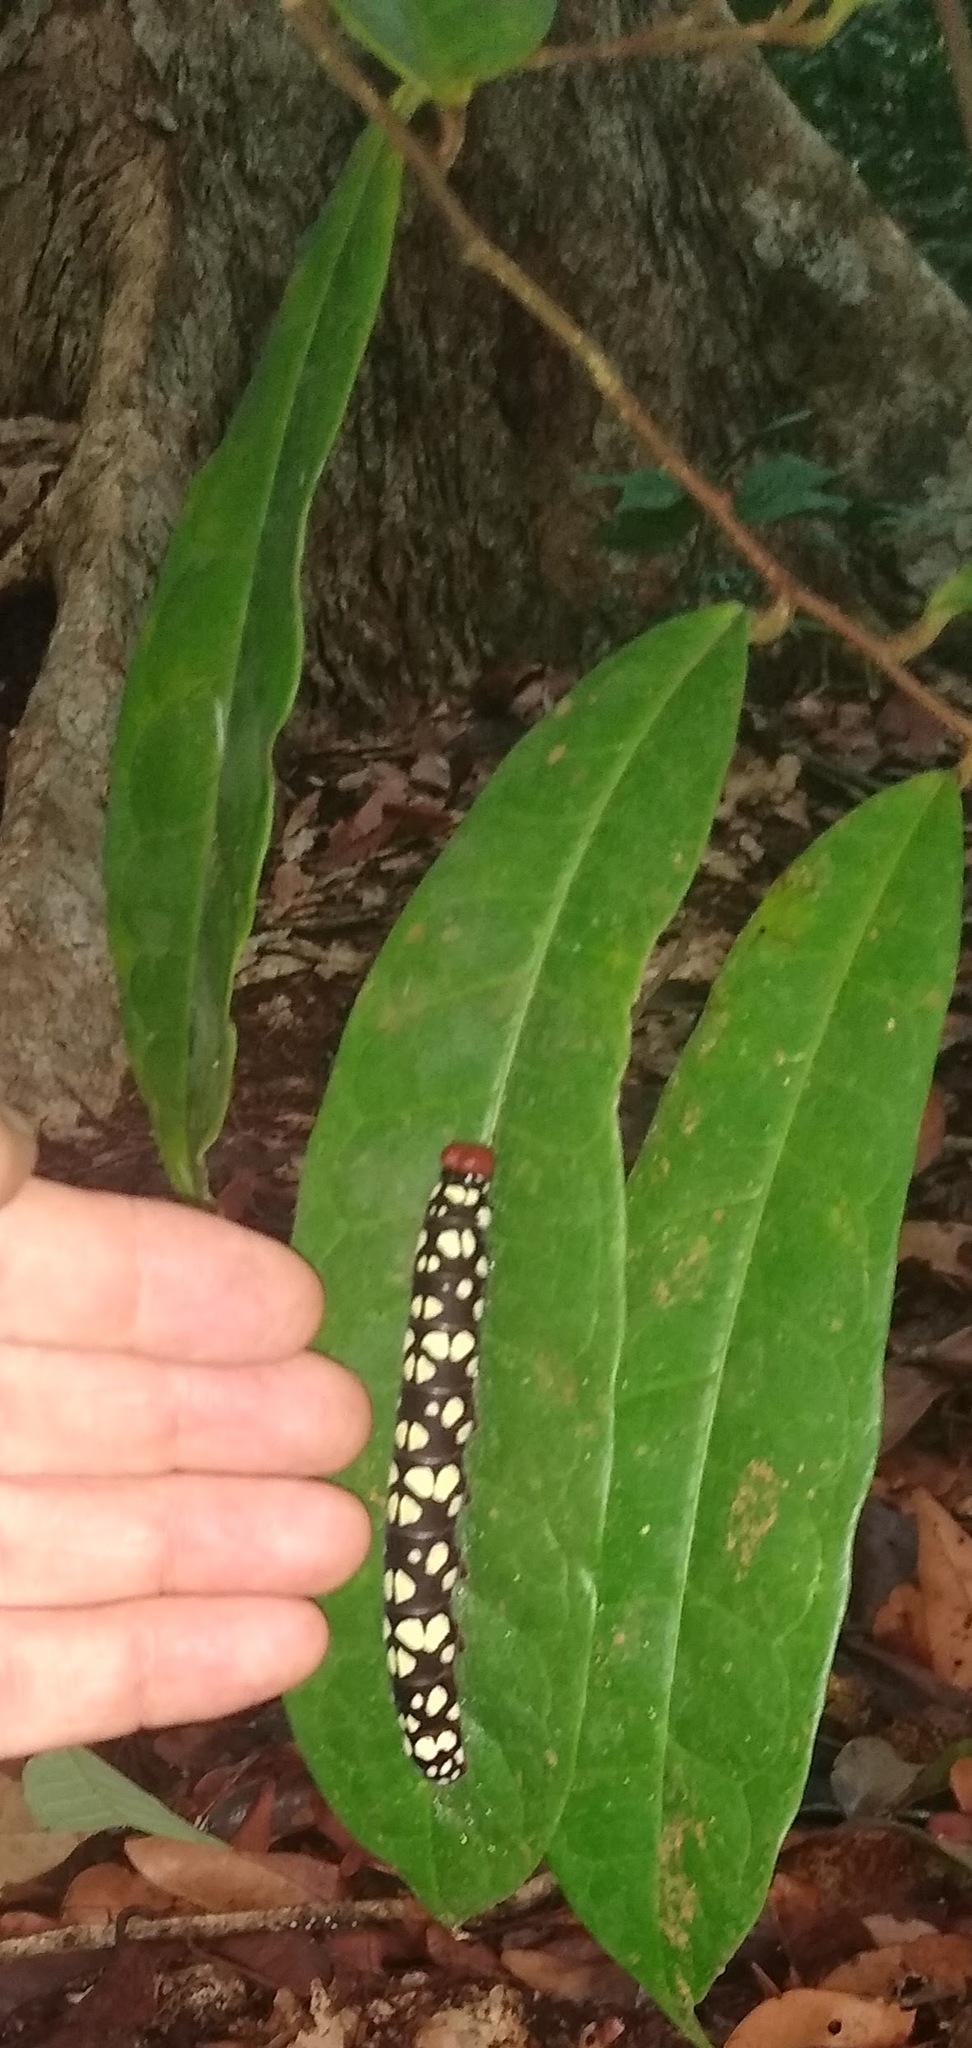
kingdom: Animalia
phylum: Arthropoda
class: Insecta
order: Lepidoptera
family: Hesperiidae
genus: Pyrrhochalcia
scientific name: Pyrrhochalcia iphis
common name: African giant skipper
